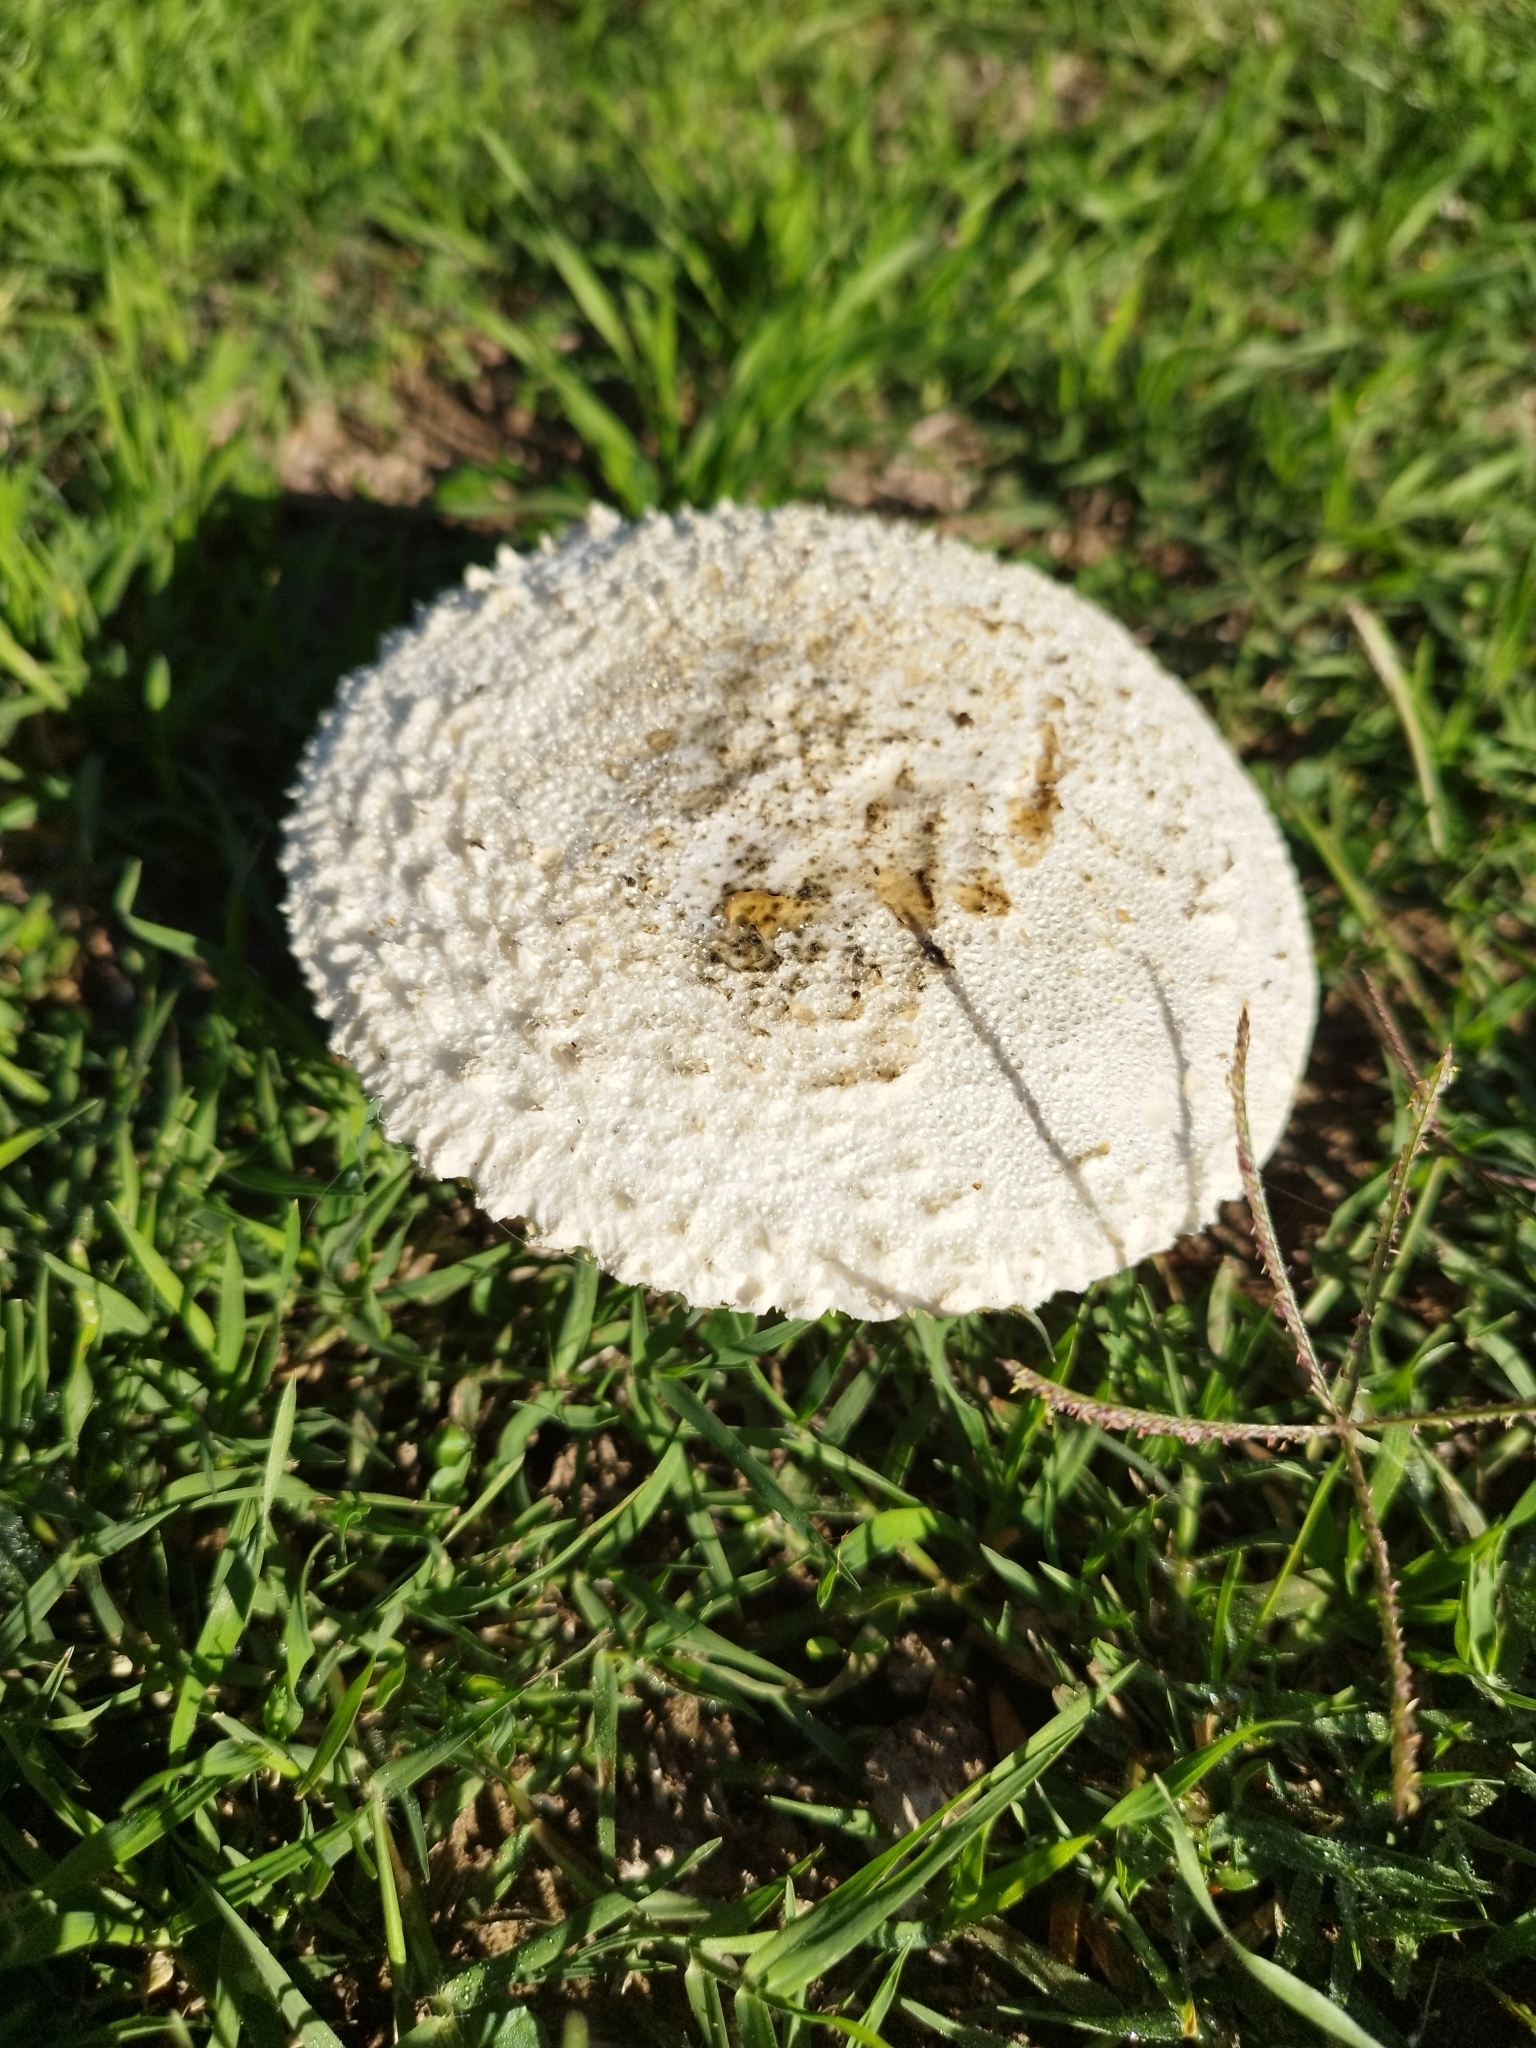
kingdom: Fungi
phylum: Basidiomycota
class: Agaricomycetes
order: Agaricales
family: Amanitaceae
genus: Aspidella
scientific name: Aspidella foetens
